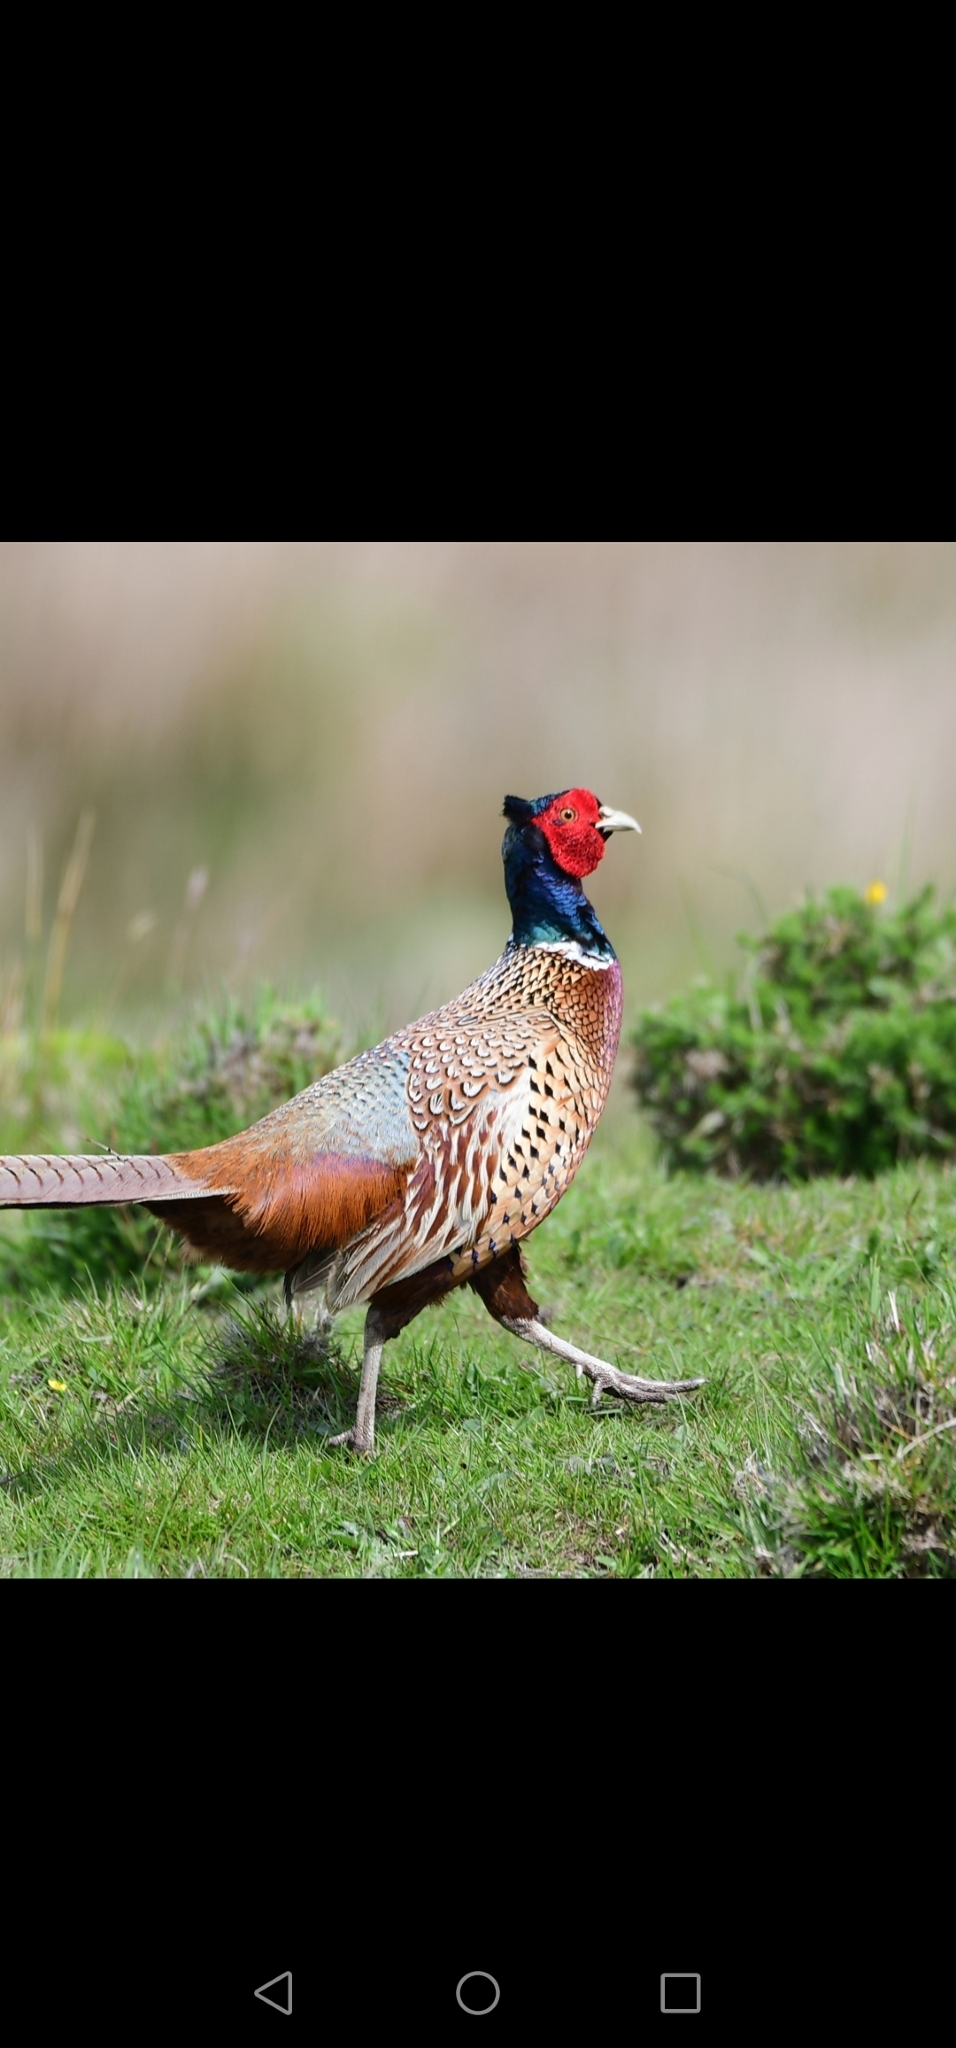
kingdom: Animalia
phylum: Chordata
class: Aves
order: Galliformes
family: Phasianidae
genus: Phasianus
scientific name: Phasianus colchicus
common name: Common pheasant
